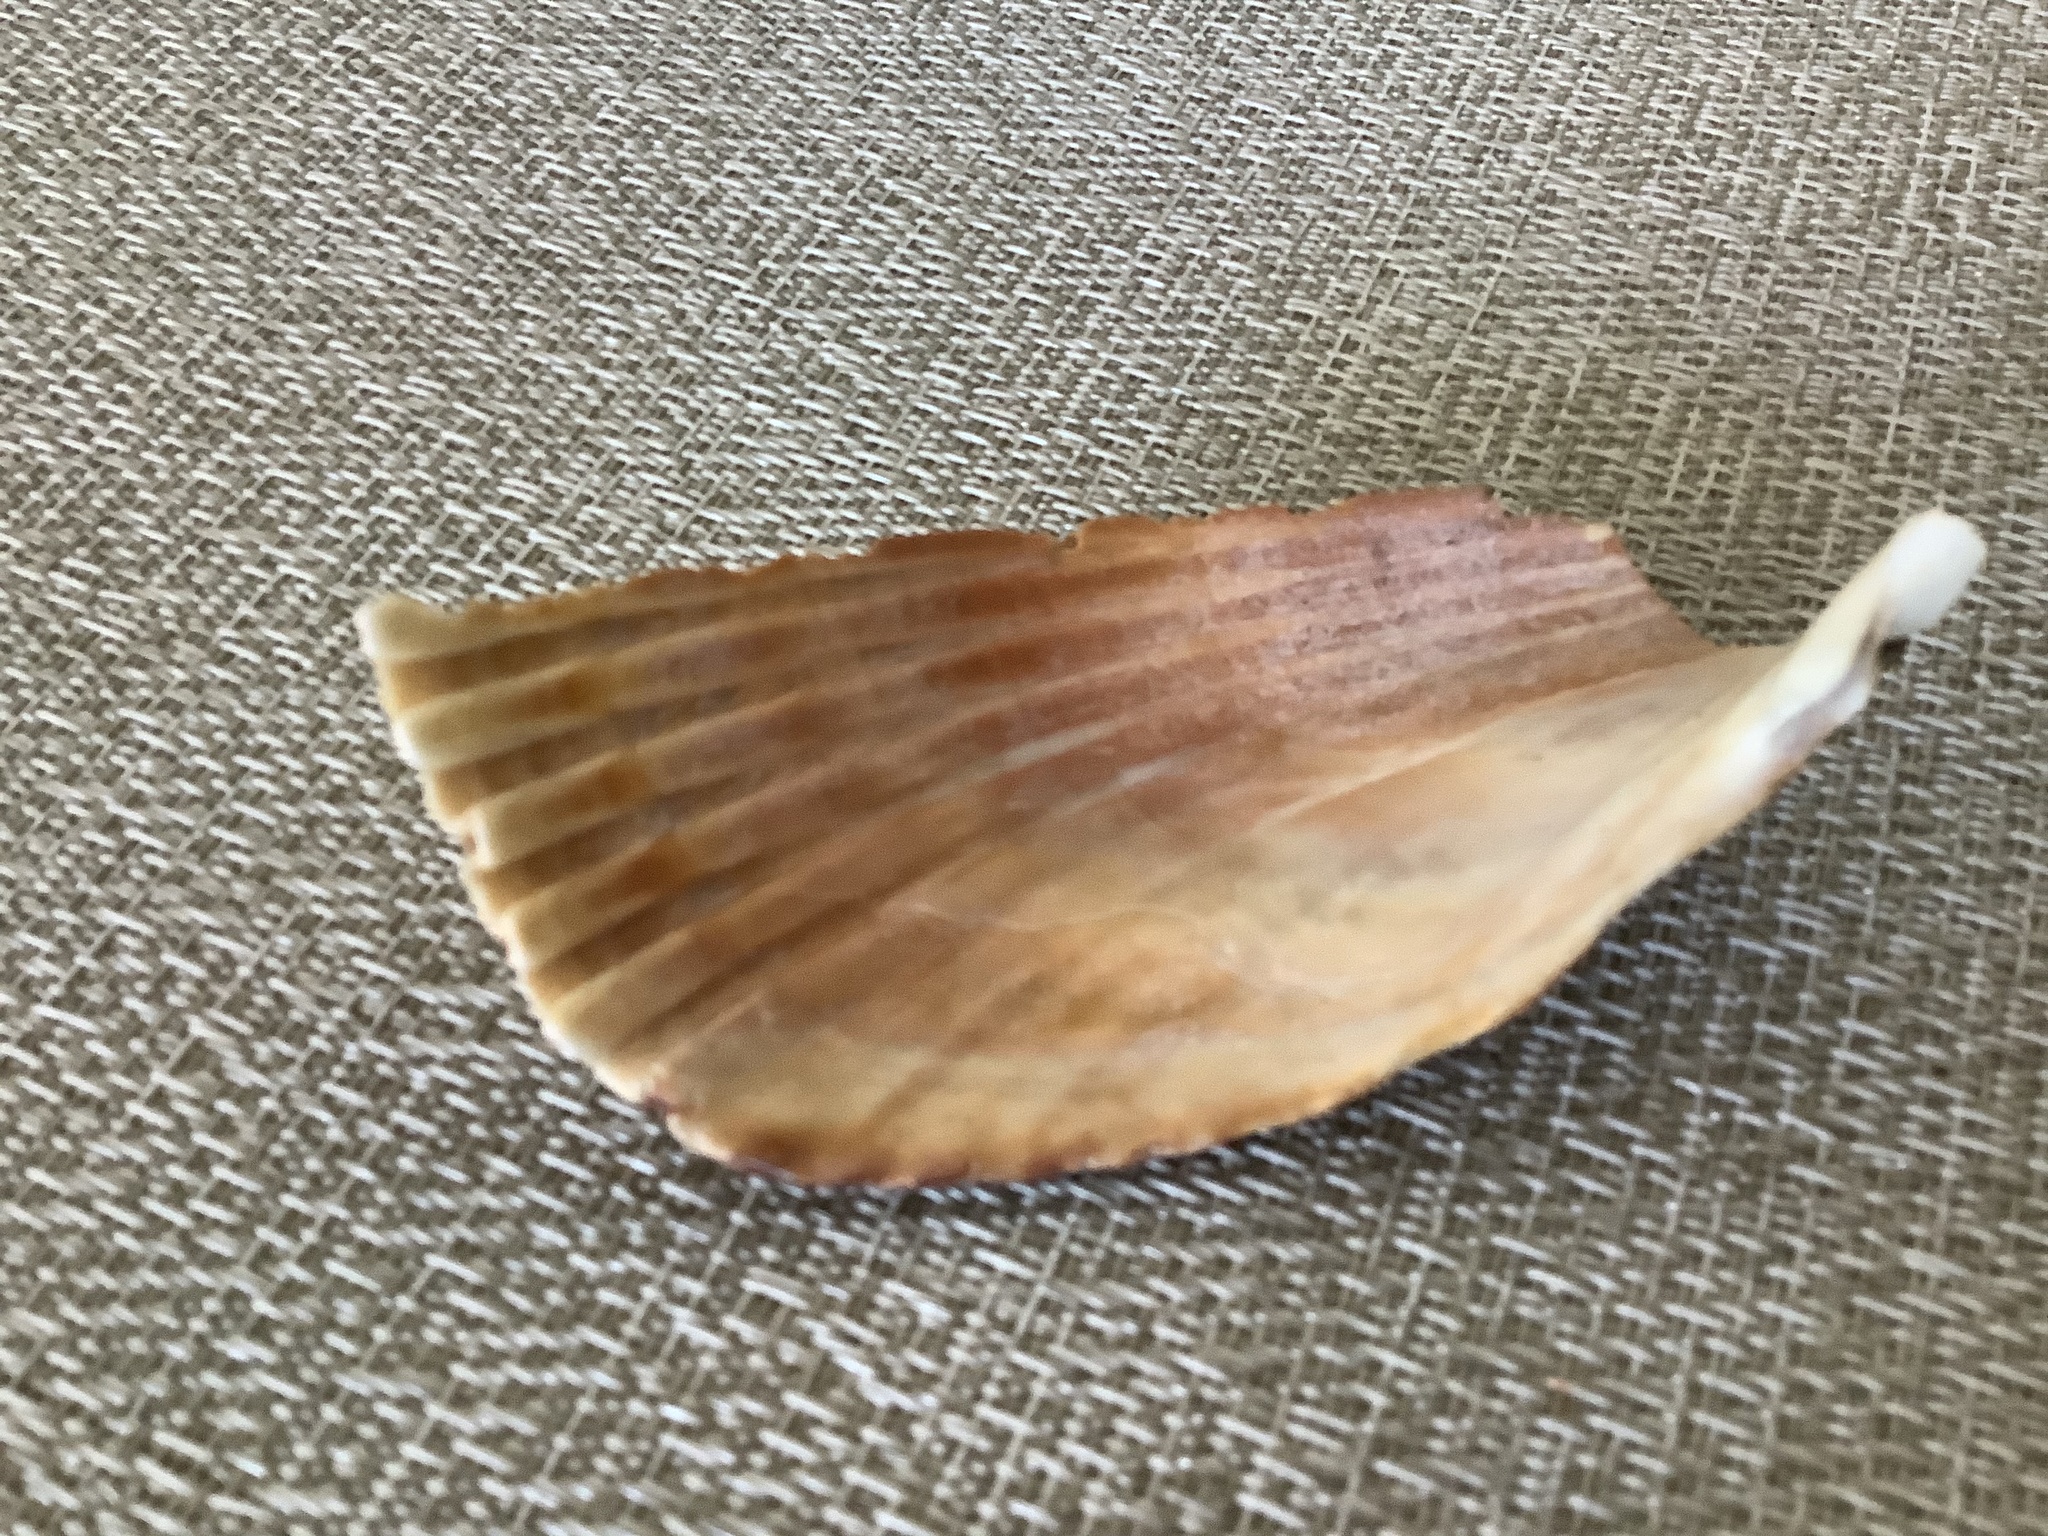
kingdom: Animalia
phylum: Mollusca
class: Bivalvia
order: Cardiida
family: Cardiidae
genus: Dinocardium
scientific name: Dinocardium robustum
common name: Atlantic giant cockle
